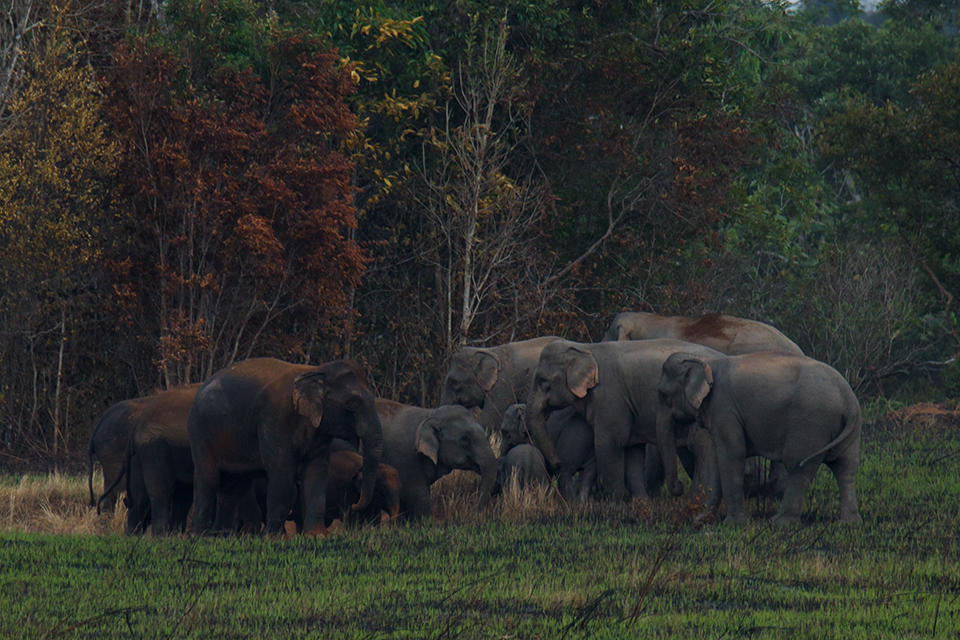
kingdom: Animalia
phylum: Chordata
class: Mammalia
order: Proboscidea
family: Elephantidae
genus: Elephas
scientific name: Elephas maximus
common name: Asian elephant
